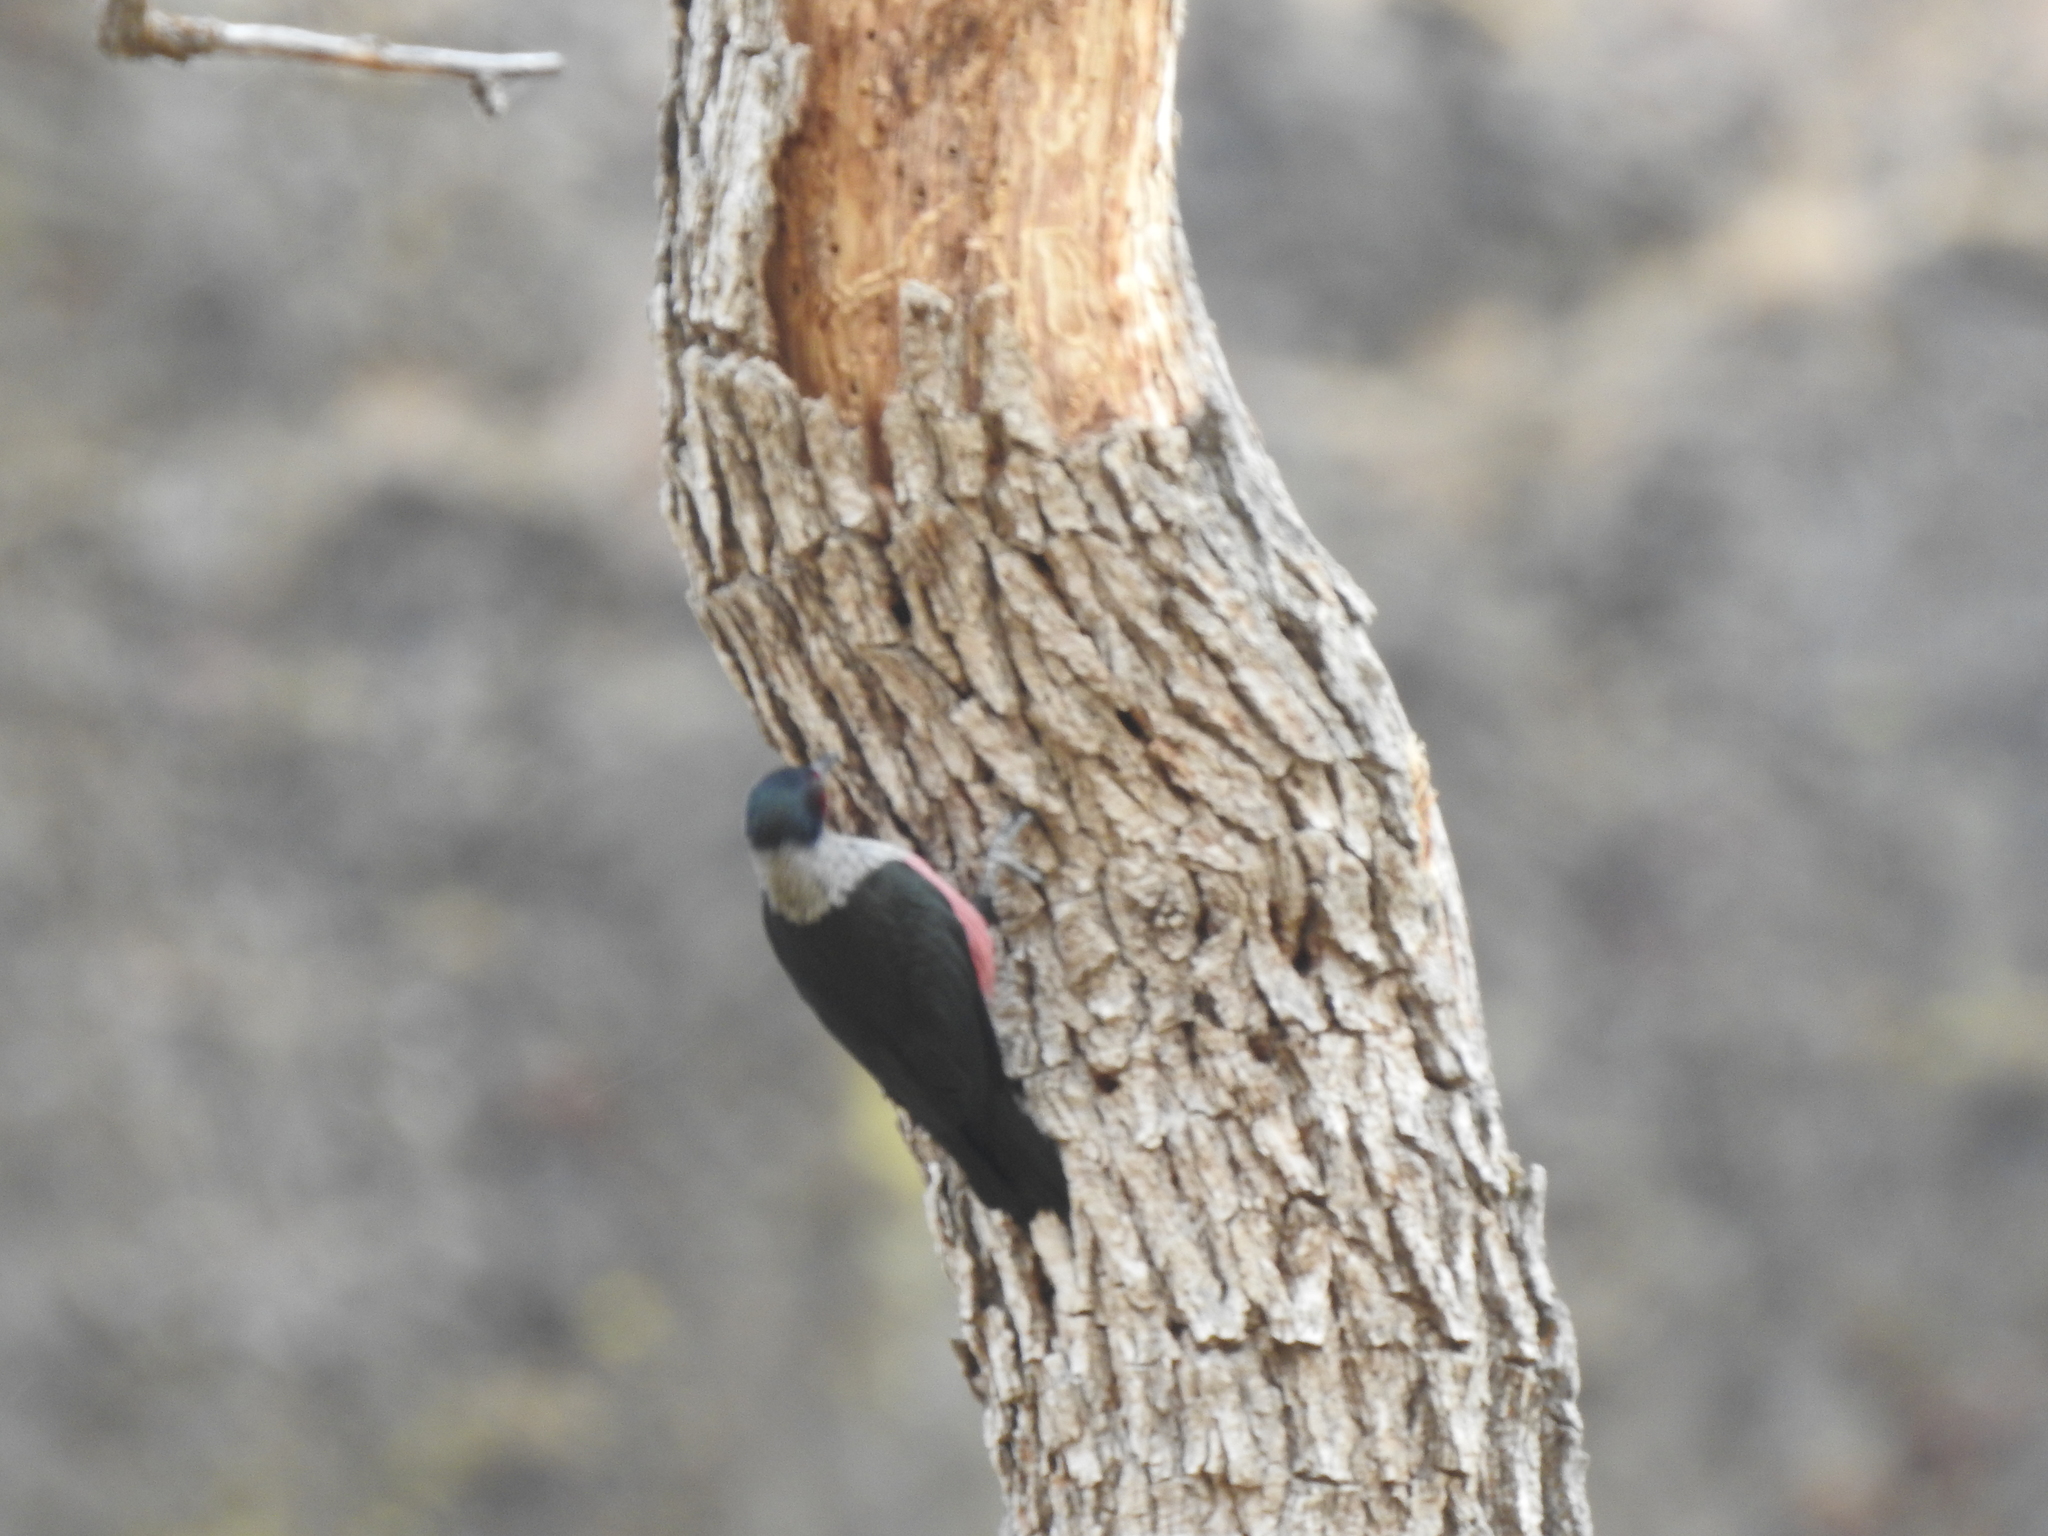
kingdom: Animalia
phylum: Chordata
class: Aves
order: Piciformes
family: Picidae
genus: Melanerpes
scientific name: Melanerpes lewis
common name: Lewis's woodpecker
